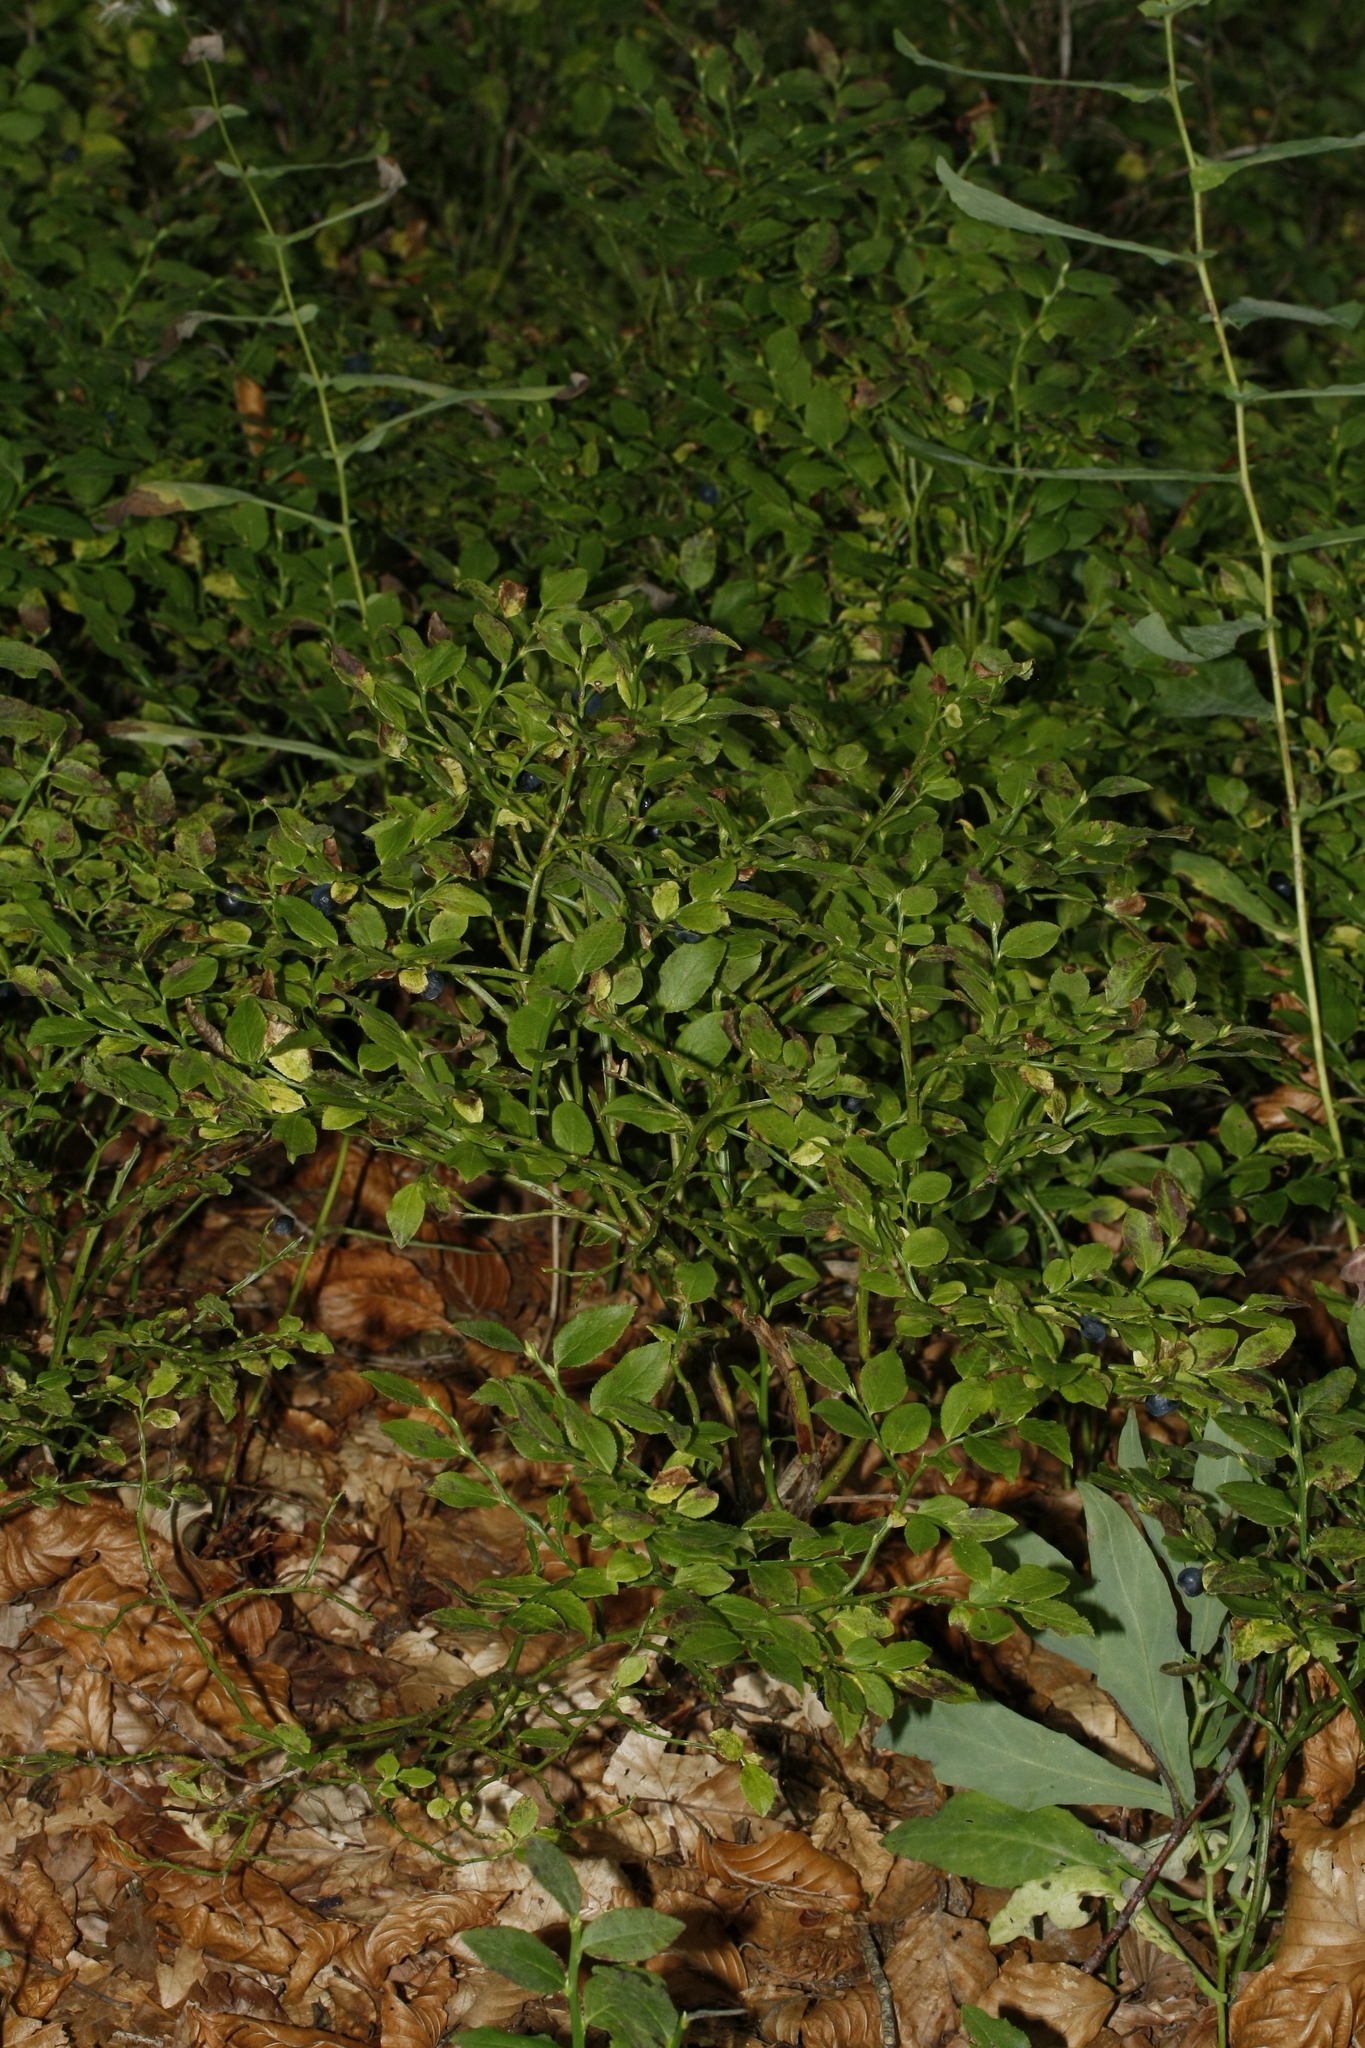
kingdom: Plantae
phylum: Tracheophyta
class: Magnoliopsida
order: Ericales
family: Ericaceae
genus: Vaccinium
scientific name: Vaccinium myrtillus
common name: Bilberry
